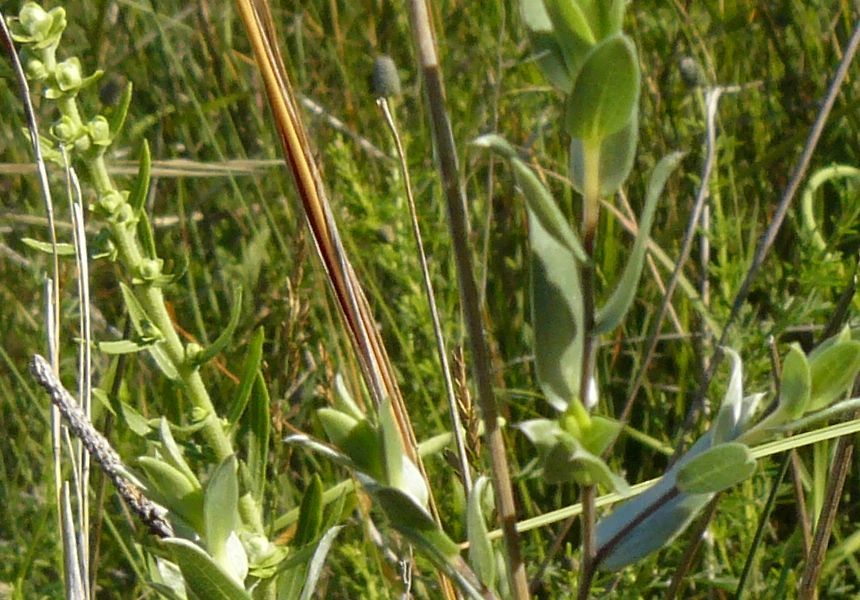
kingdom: Plantae
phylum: Tracheophyta
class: Magnoliopsida
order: Asterales
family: Asteraceae
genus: Symphyotrichum
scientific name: Symphyotrichum sericeum
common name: Silky aster
